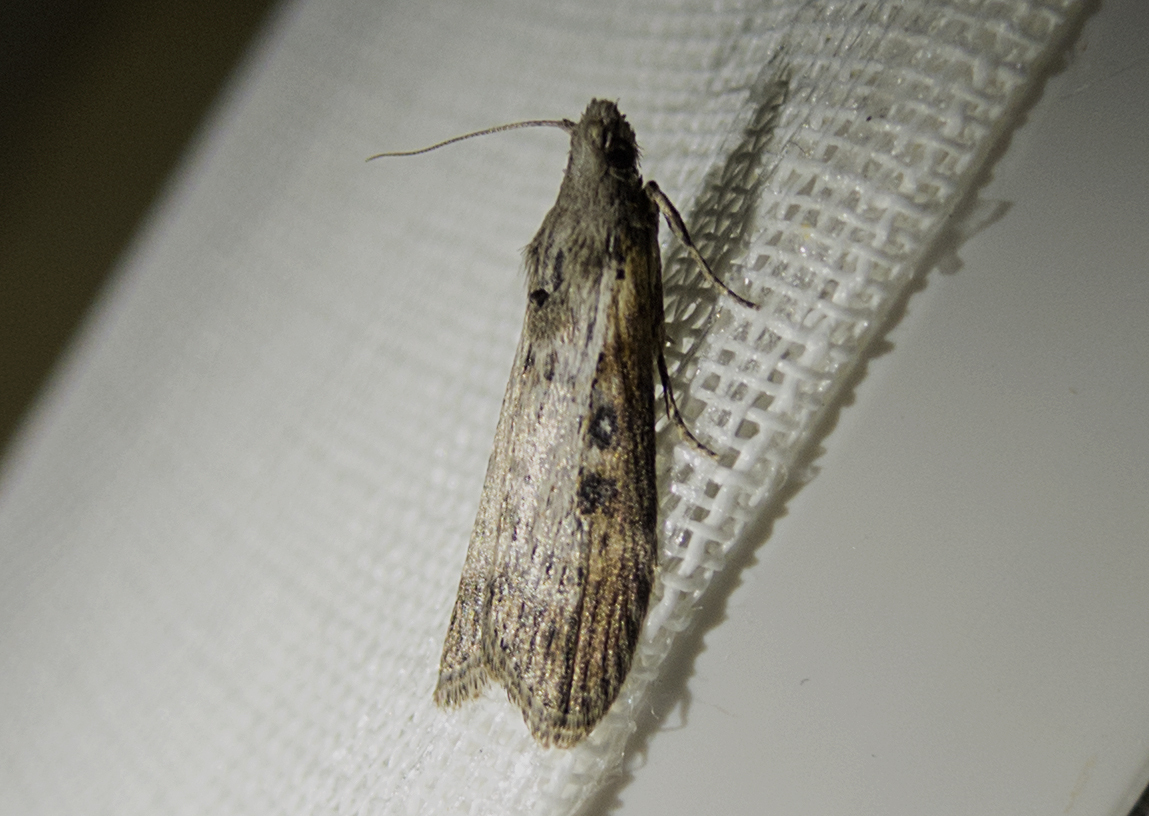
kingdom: Animalia
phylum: Arthropoda
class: Insecta
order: Lepidoptera
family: Pyralidae
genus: Lamoria
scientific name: Lamoria anella
